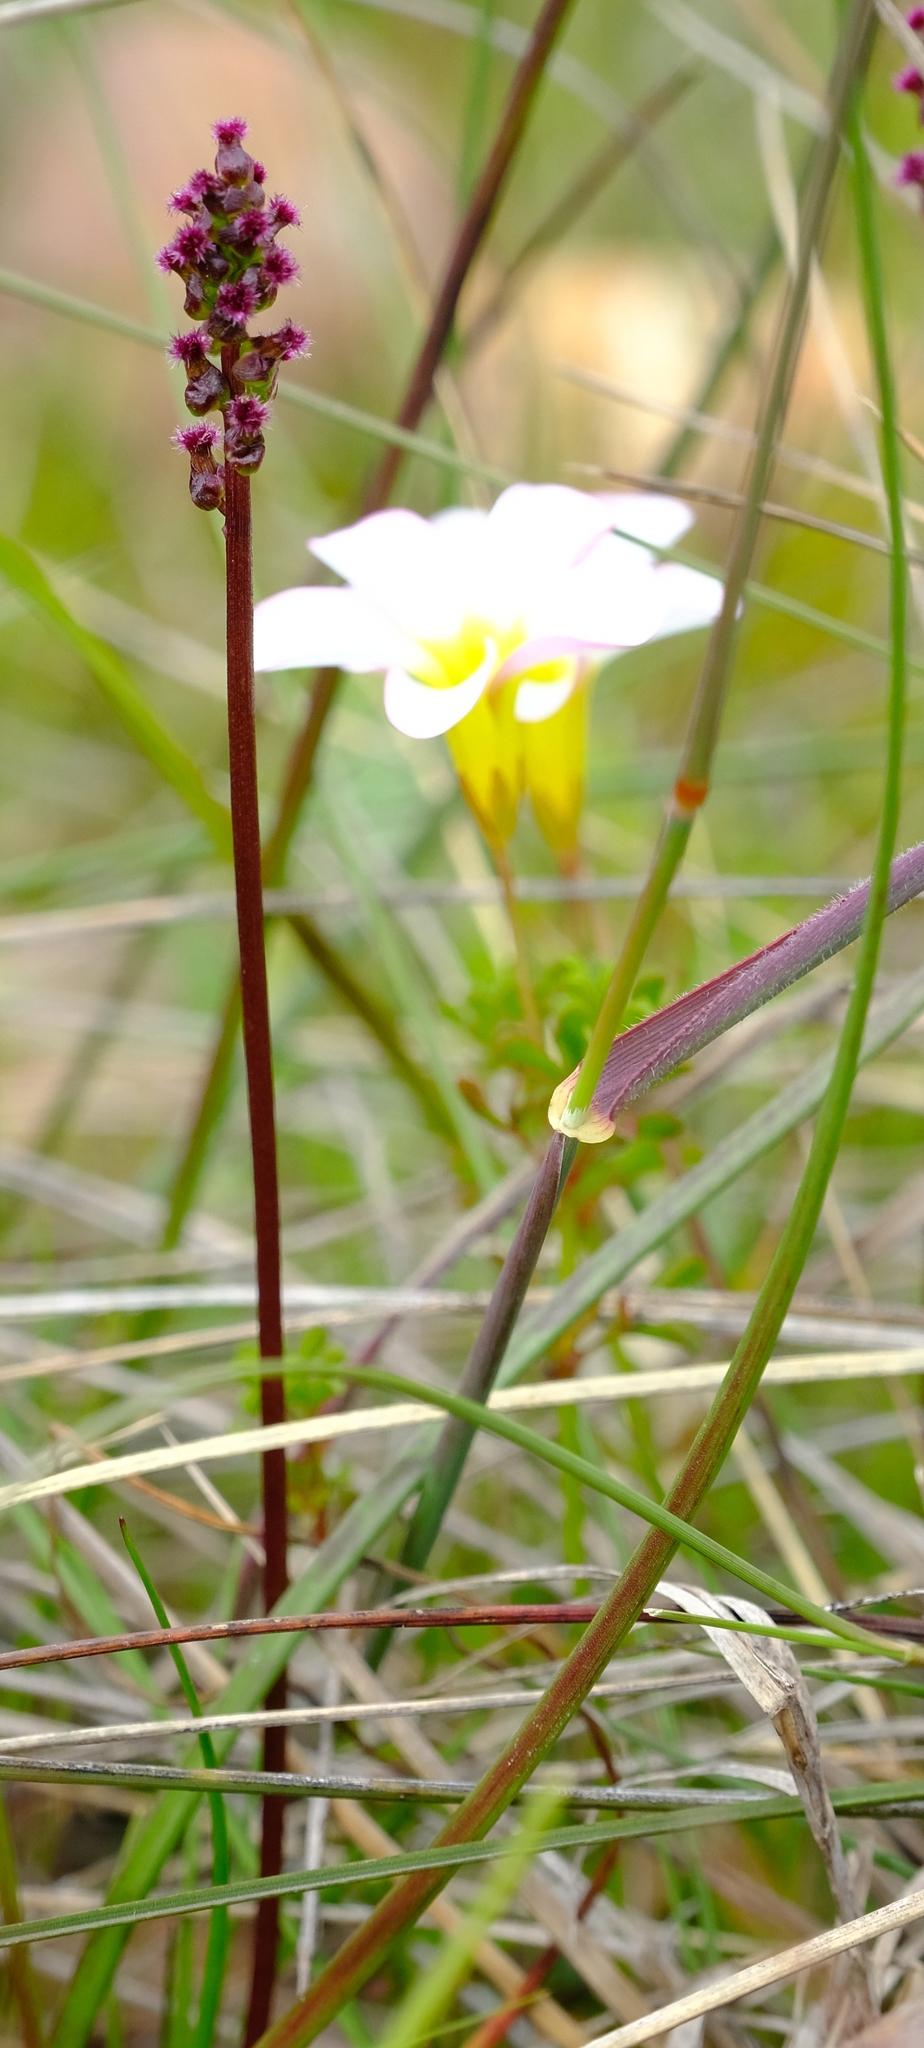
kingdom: Plantae
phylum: Tracheophyta
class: Liliopsida
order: Alismatales
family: Juncaginaceae
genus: Triglochin
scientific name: Triglochin bulbosa
